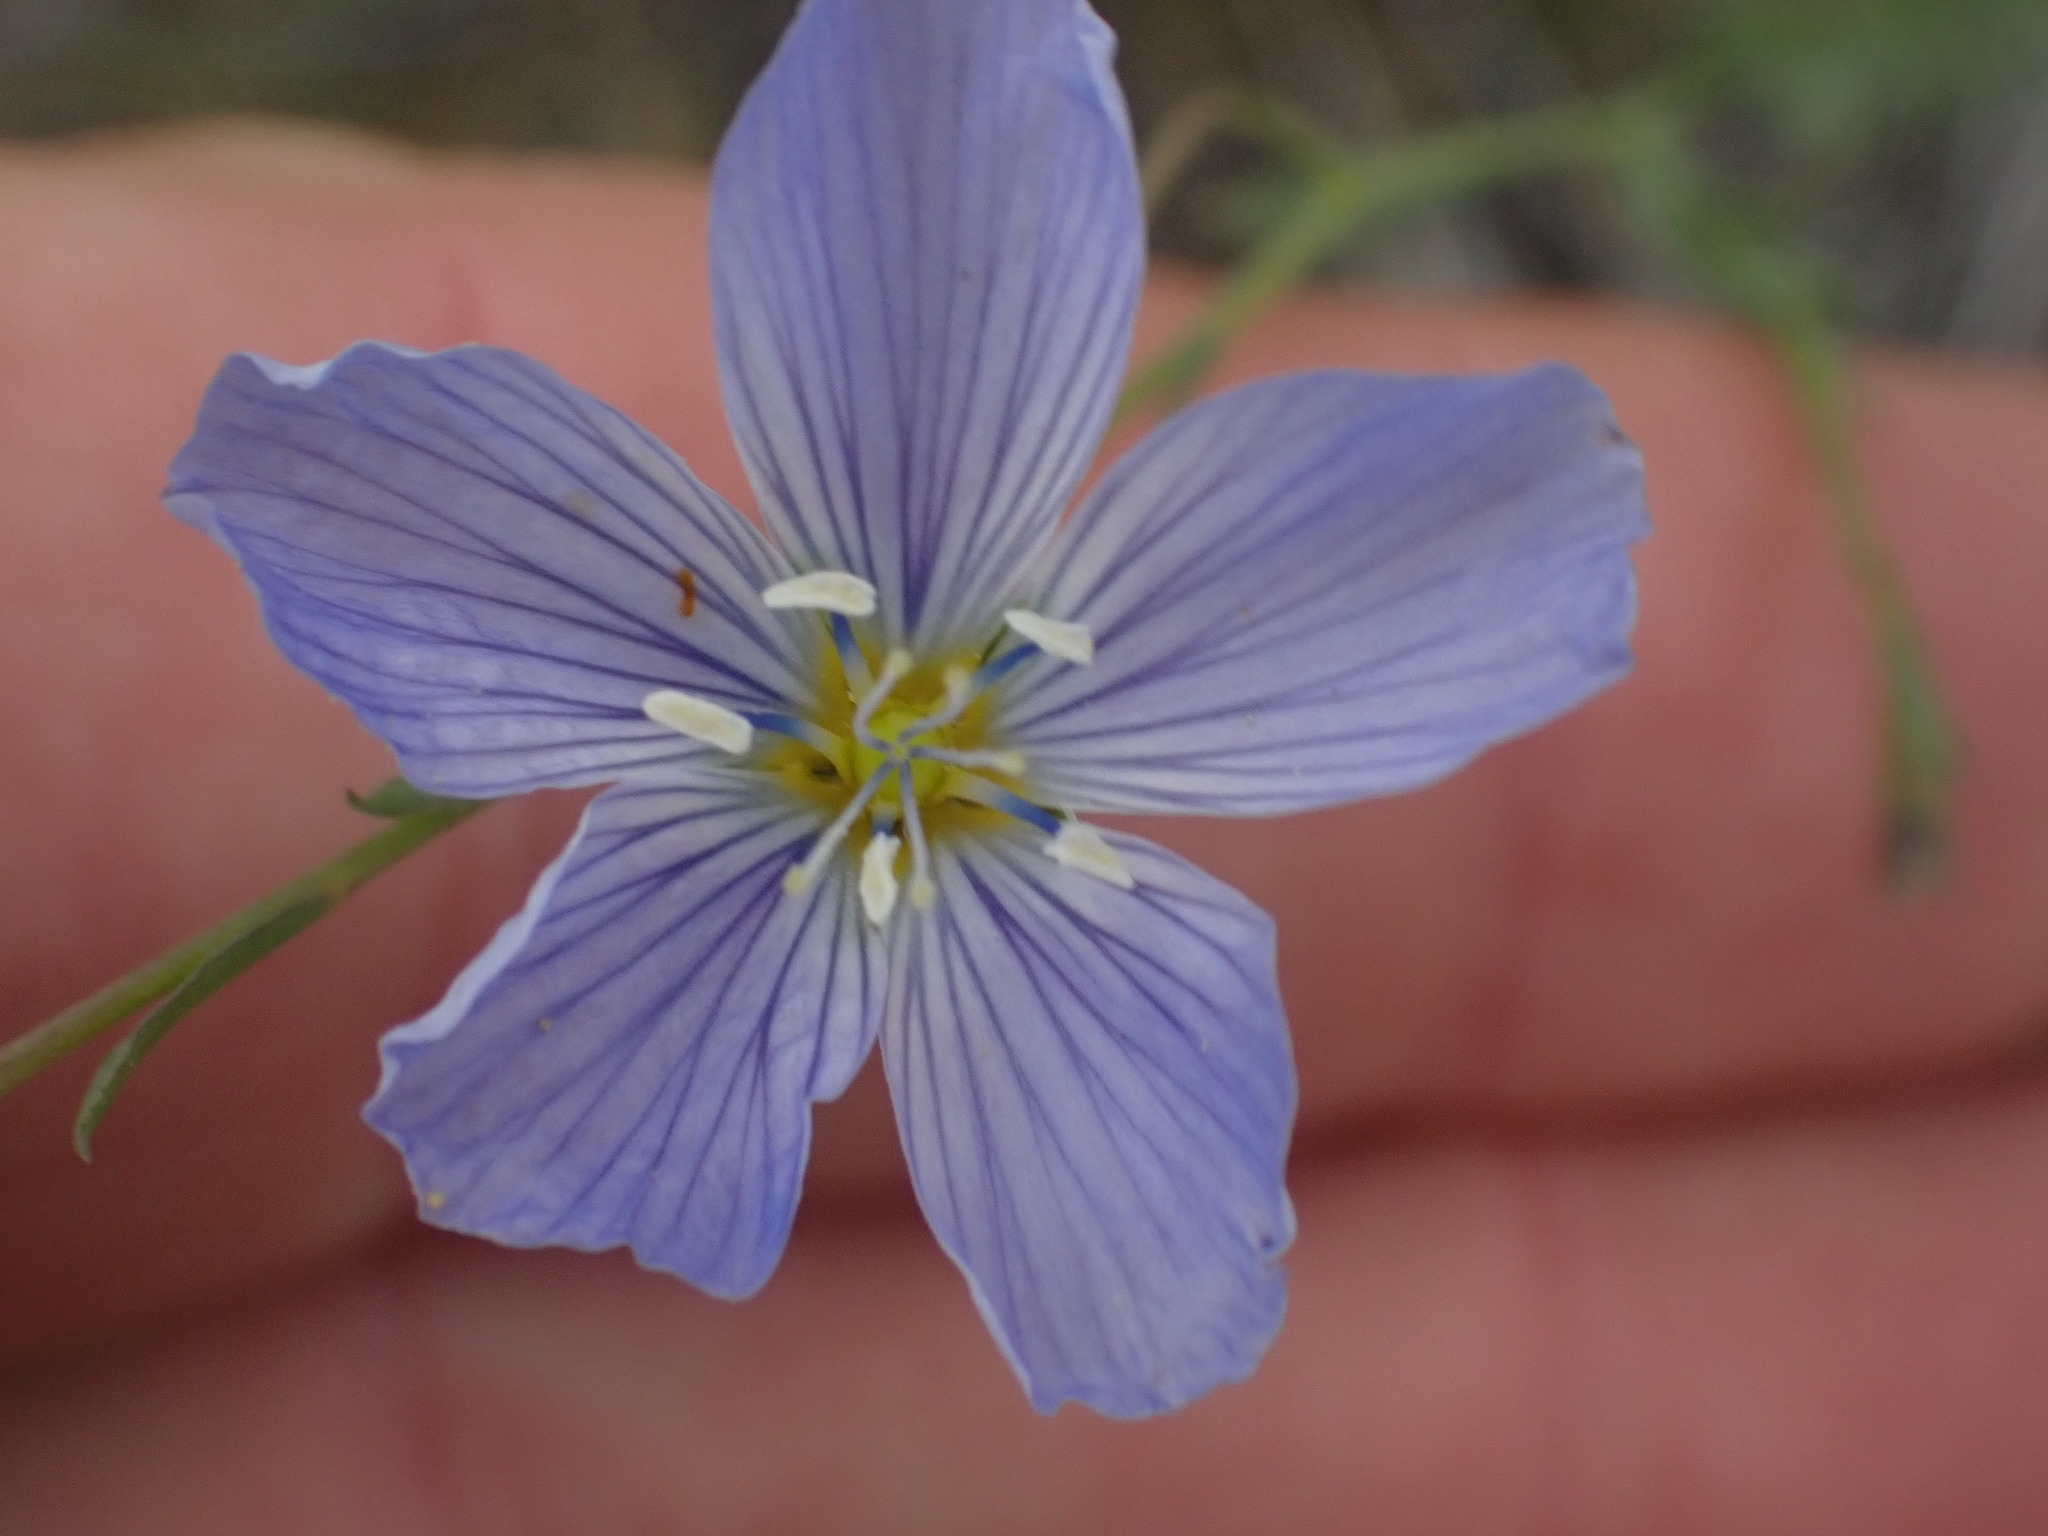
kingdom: Plantae
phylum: Tracheophyta
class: Magnoliopsida
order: Malpighiales
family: Linaceae
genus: Linum
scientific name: Linum lewisii
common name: Prairie flax
